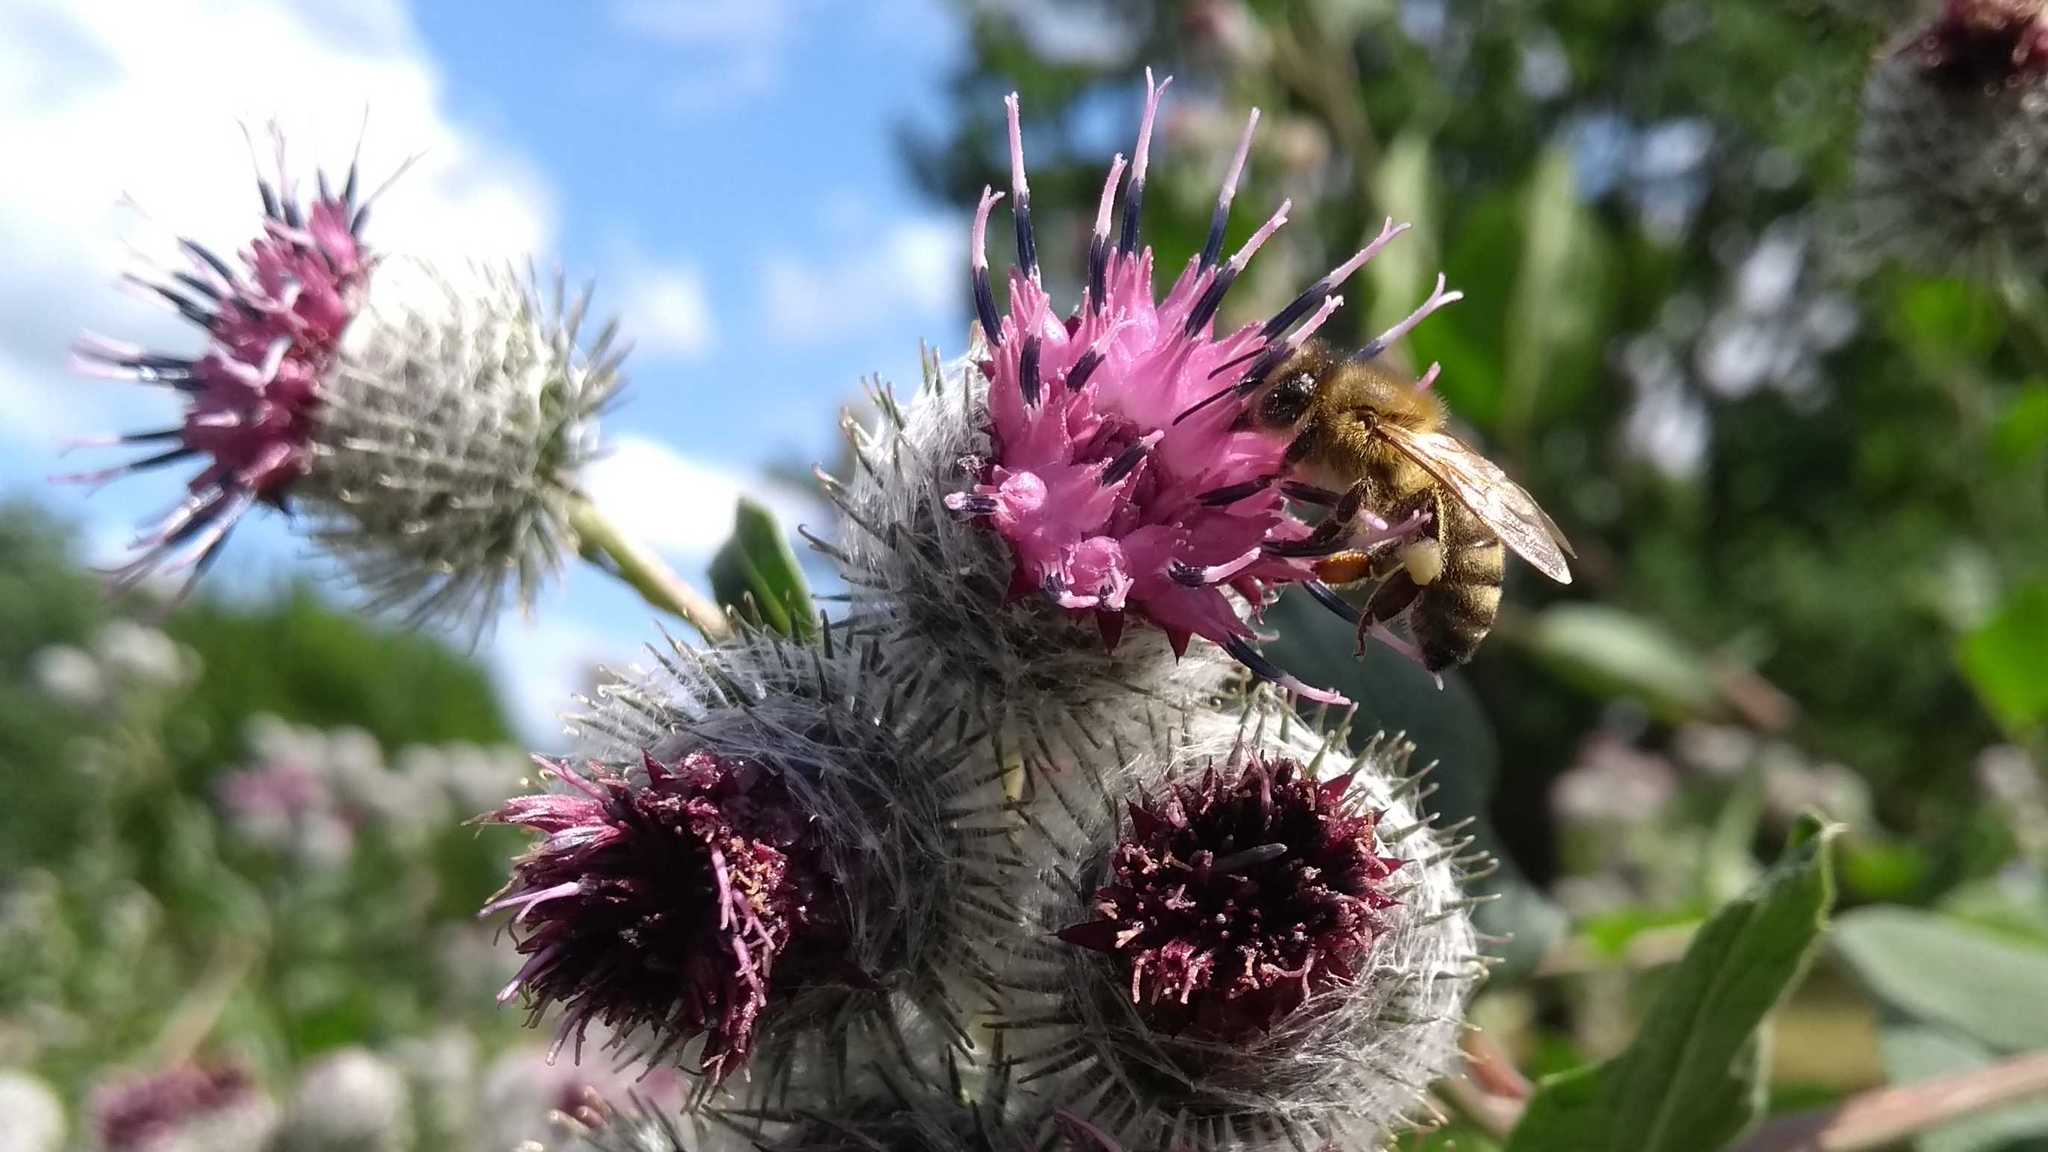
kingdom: Animalia
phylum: Arthropoda
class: Insecta
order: Hymenoptera
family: Apidae
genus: Apis
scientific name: Apis mellifera
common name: Honey bee
